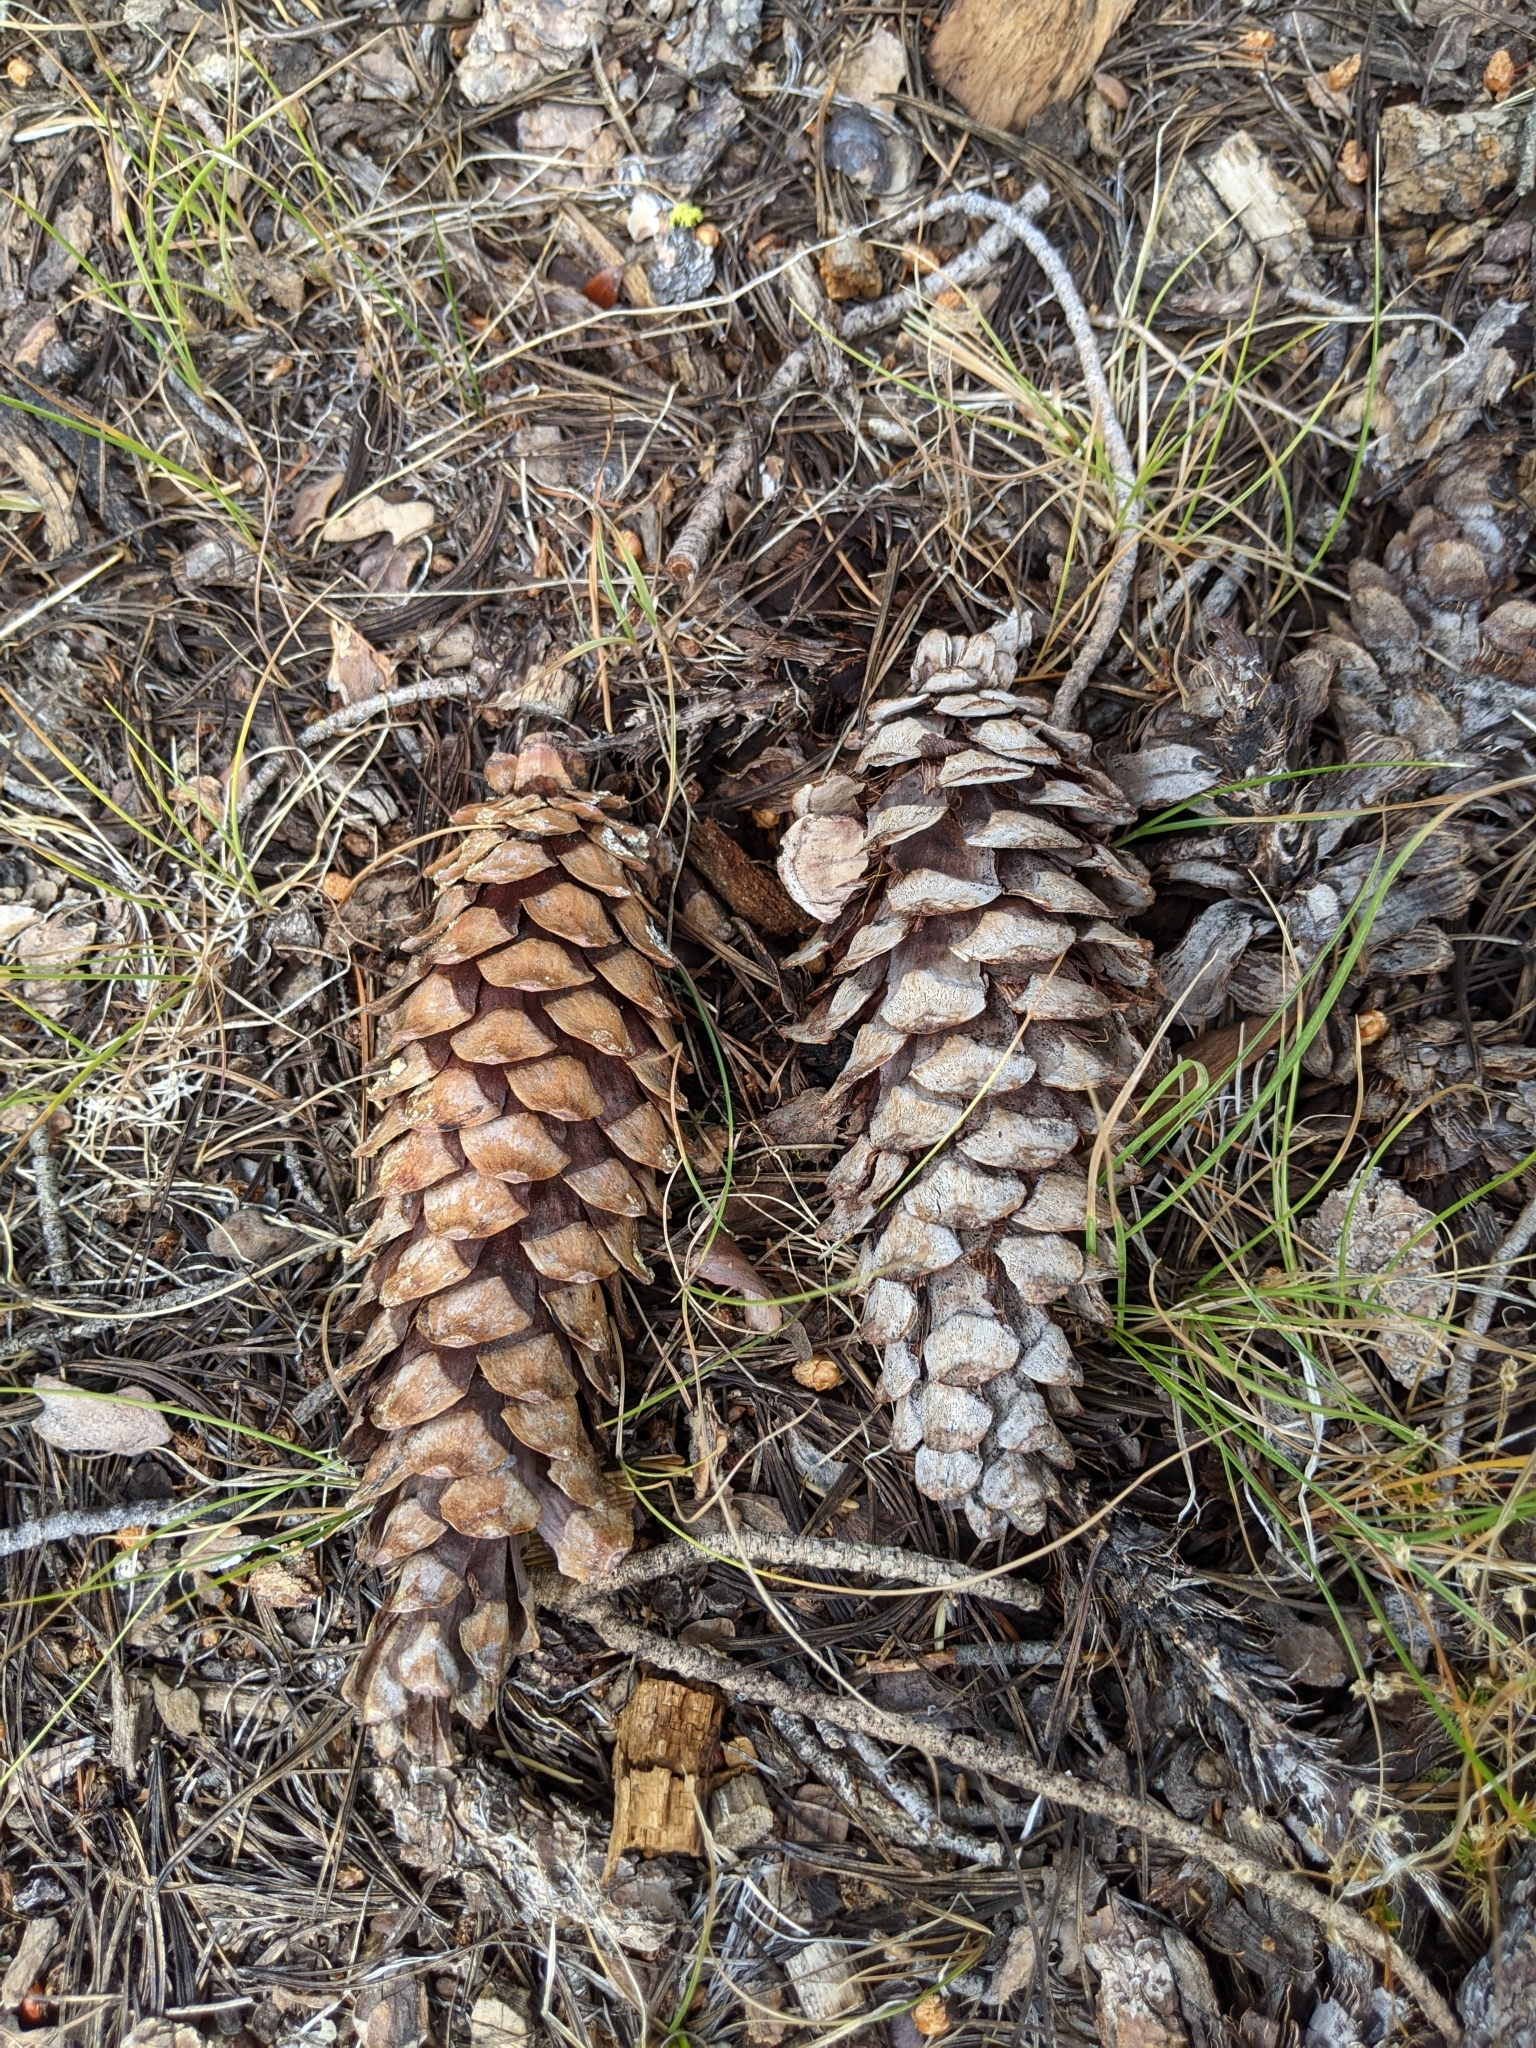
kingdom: Plantae
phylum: Tracheophyta
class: Pinopsida
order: Pinales
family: Pinaceae
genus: Pinus
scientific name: Pinus monticola
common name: Western white pine
